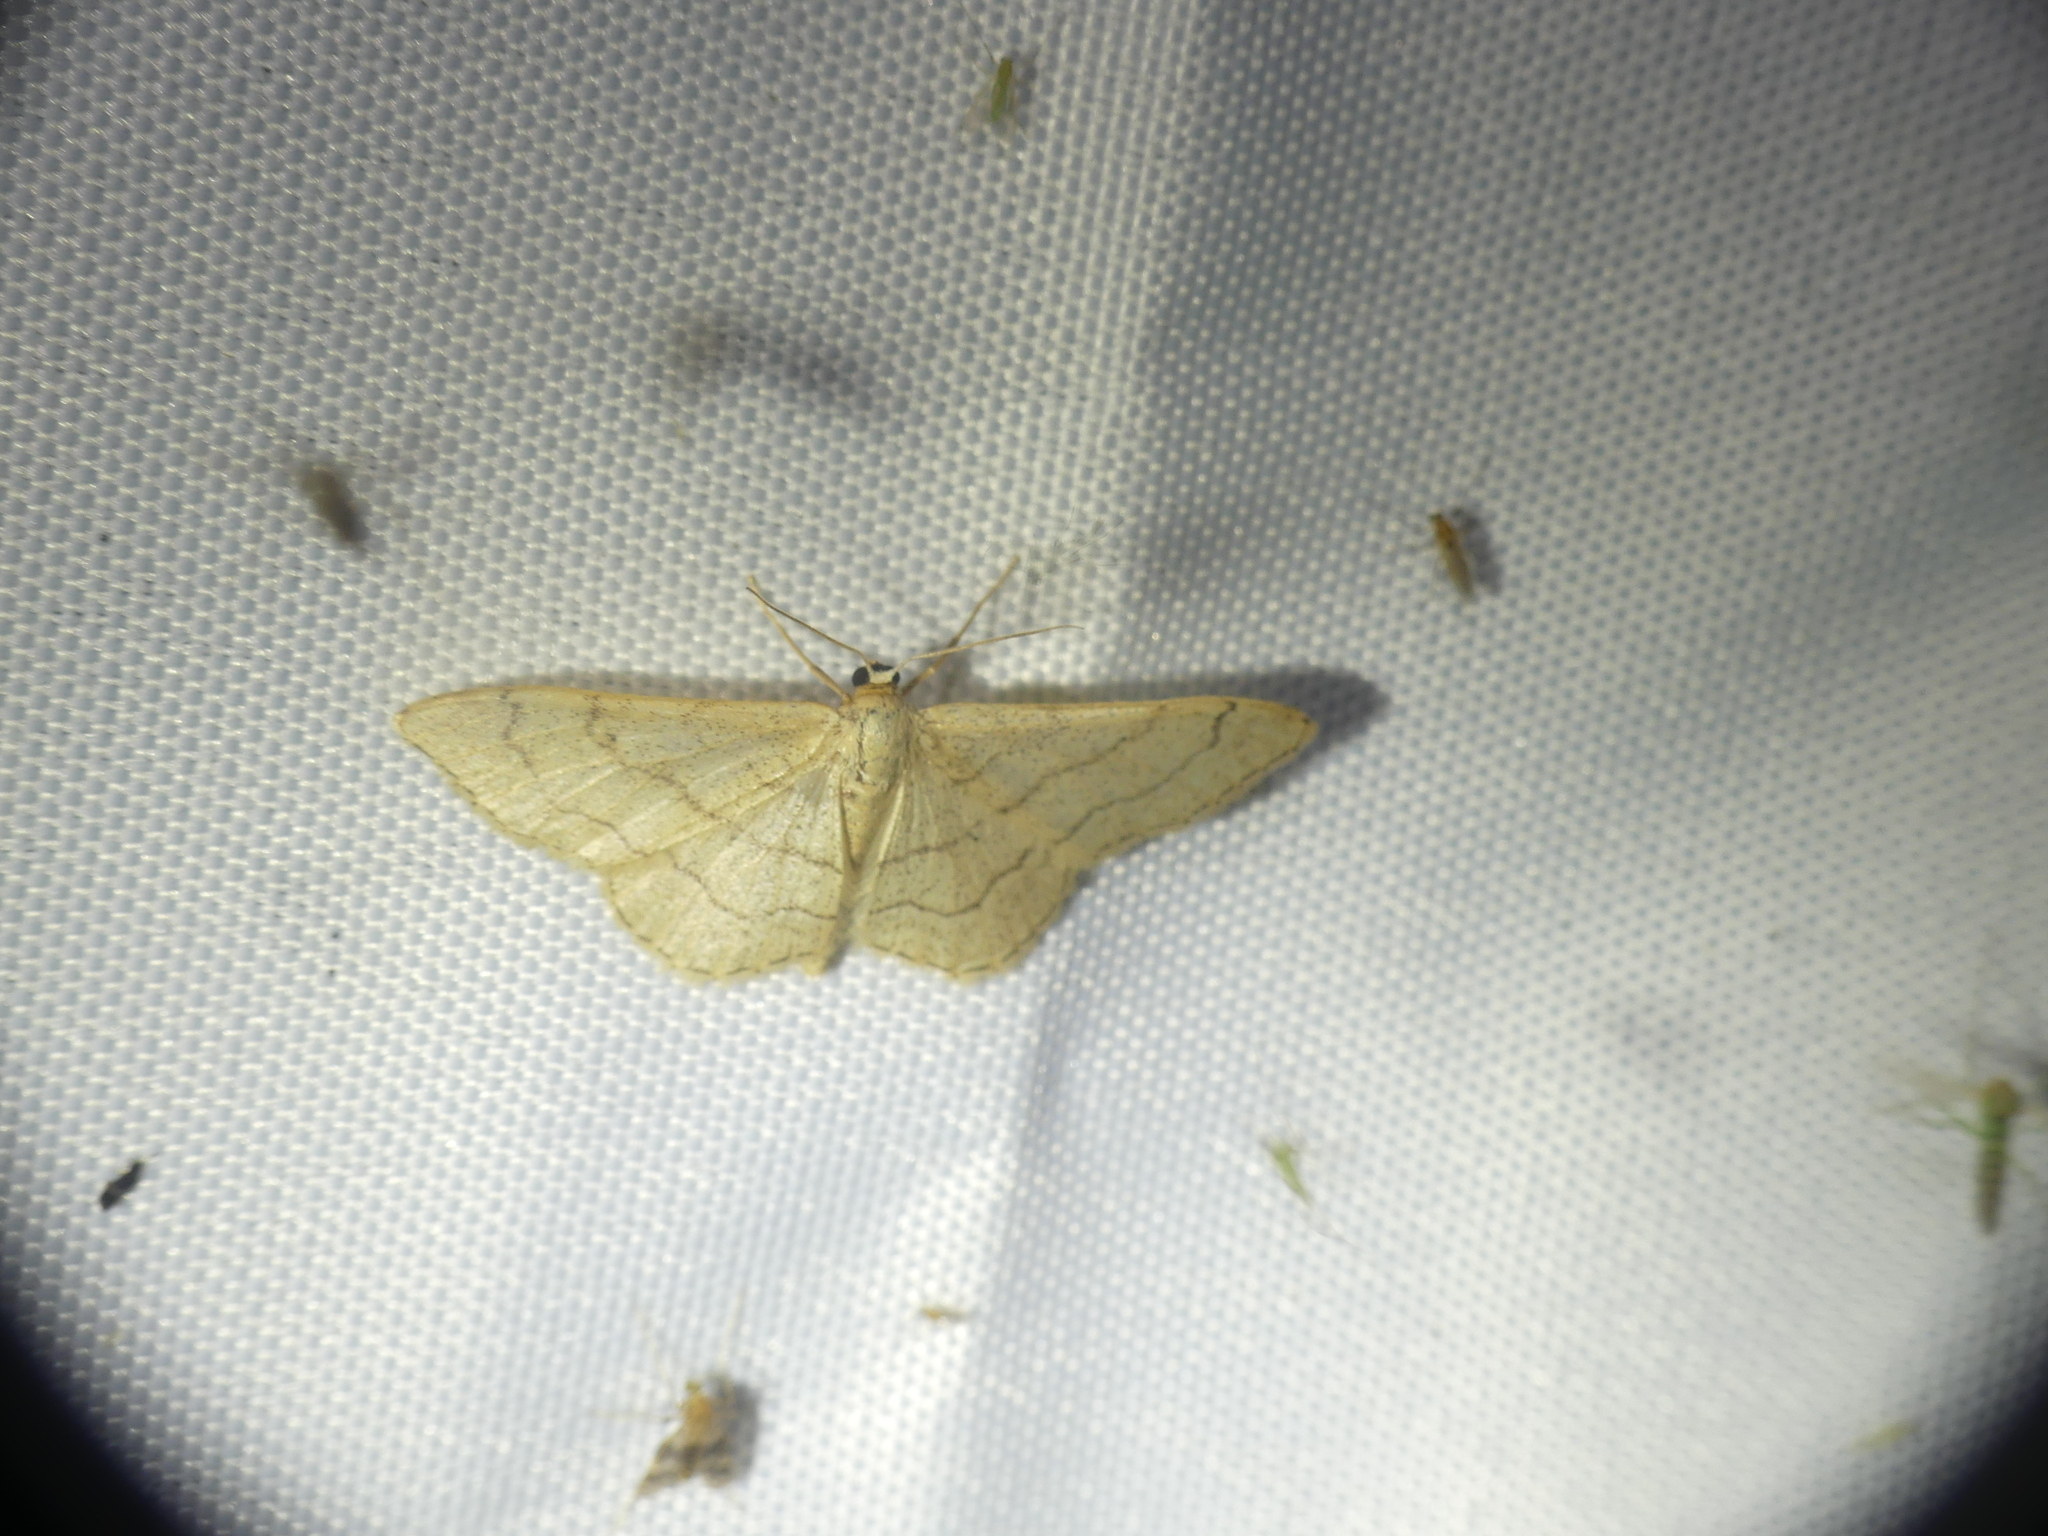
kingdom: Animalia
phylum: Arthropoda
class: Insecta
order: Lepidoptera
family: Geometridae
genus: Idaea
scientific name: Idaea aversata
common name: Riband wave
